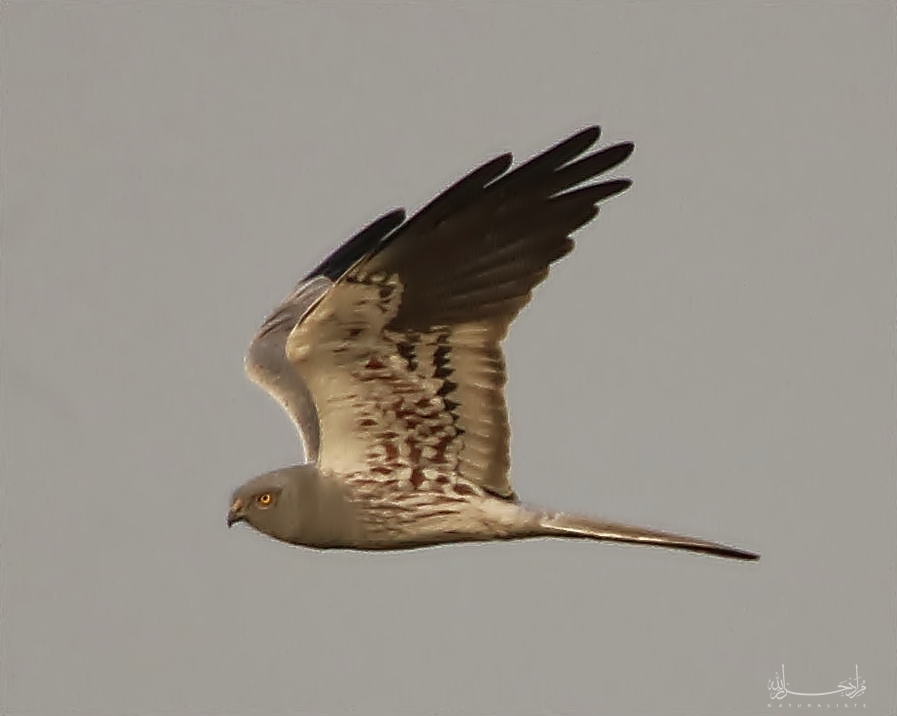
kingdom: Animalia
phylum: Chordata
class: Aves
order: Accipitriformes
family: Accipitridae
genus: Circus
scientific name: Circus pygargus
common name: Montagu's harrier
